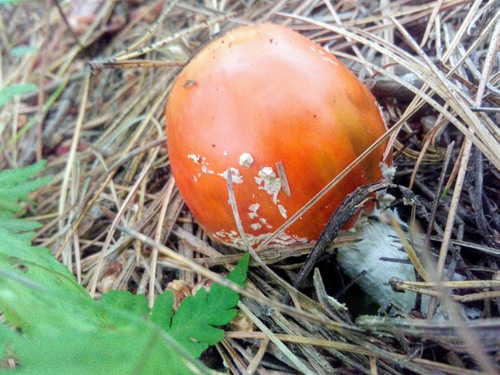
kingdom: Fungi
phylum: Basidiomycota
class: Agaricomycetes
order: Agaricales
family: Amanitaceae
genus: Amanita
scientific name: Amanita muscaria
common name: Fly agaric
